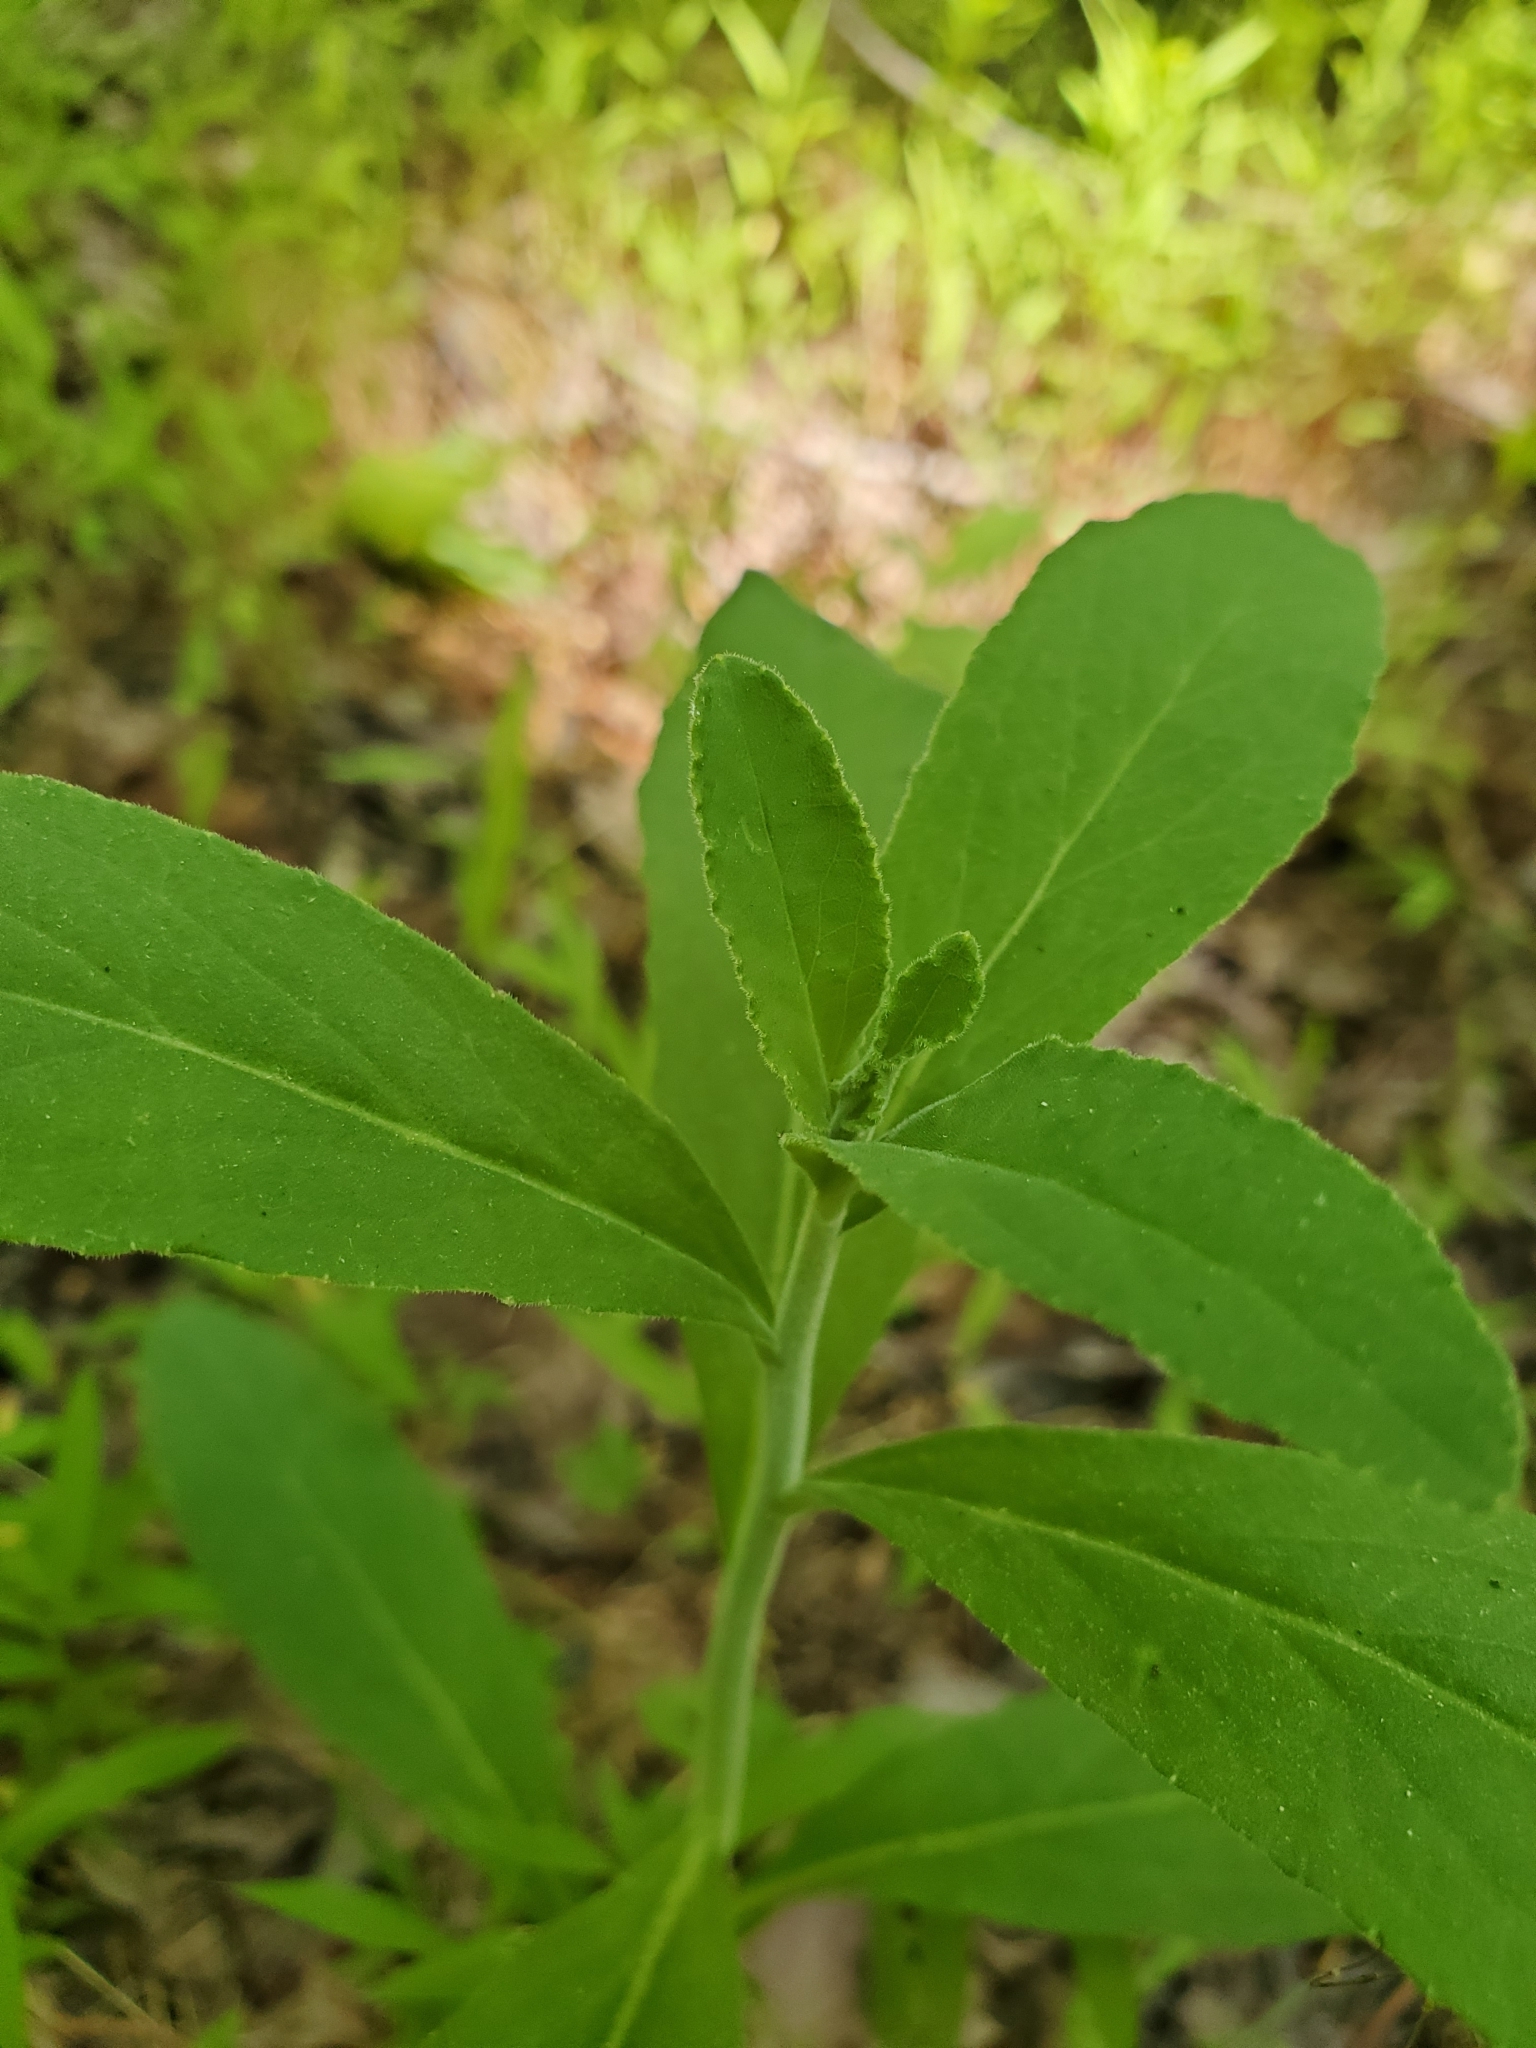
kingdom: Plantae
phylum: Tracheophyta
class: Magnoliopsida
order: Asterales
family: Campanulaceae
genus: Lobelia
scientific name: Lobelia puberula
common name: Purple dewdrop
